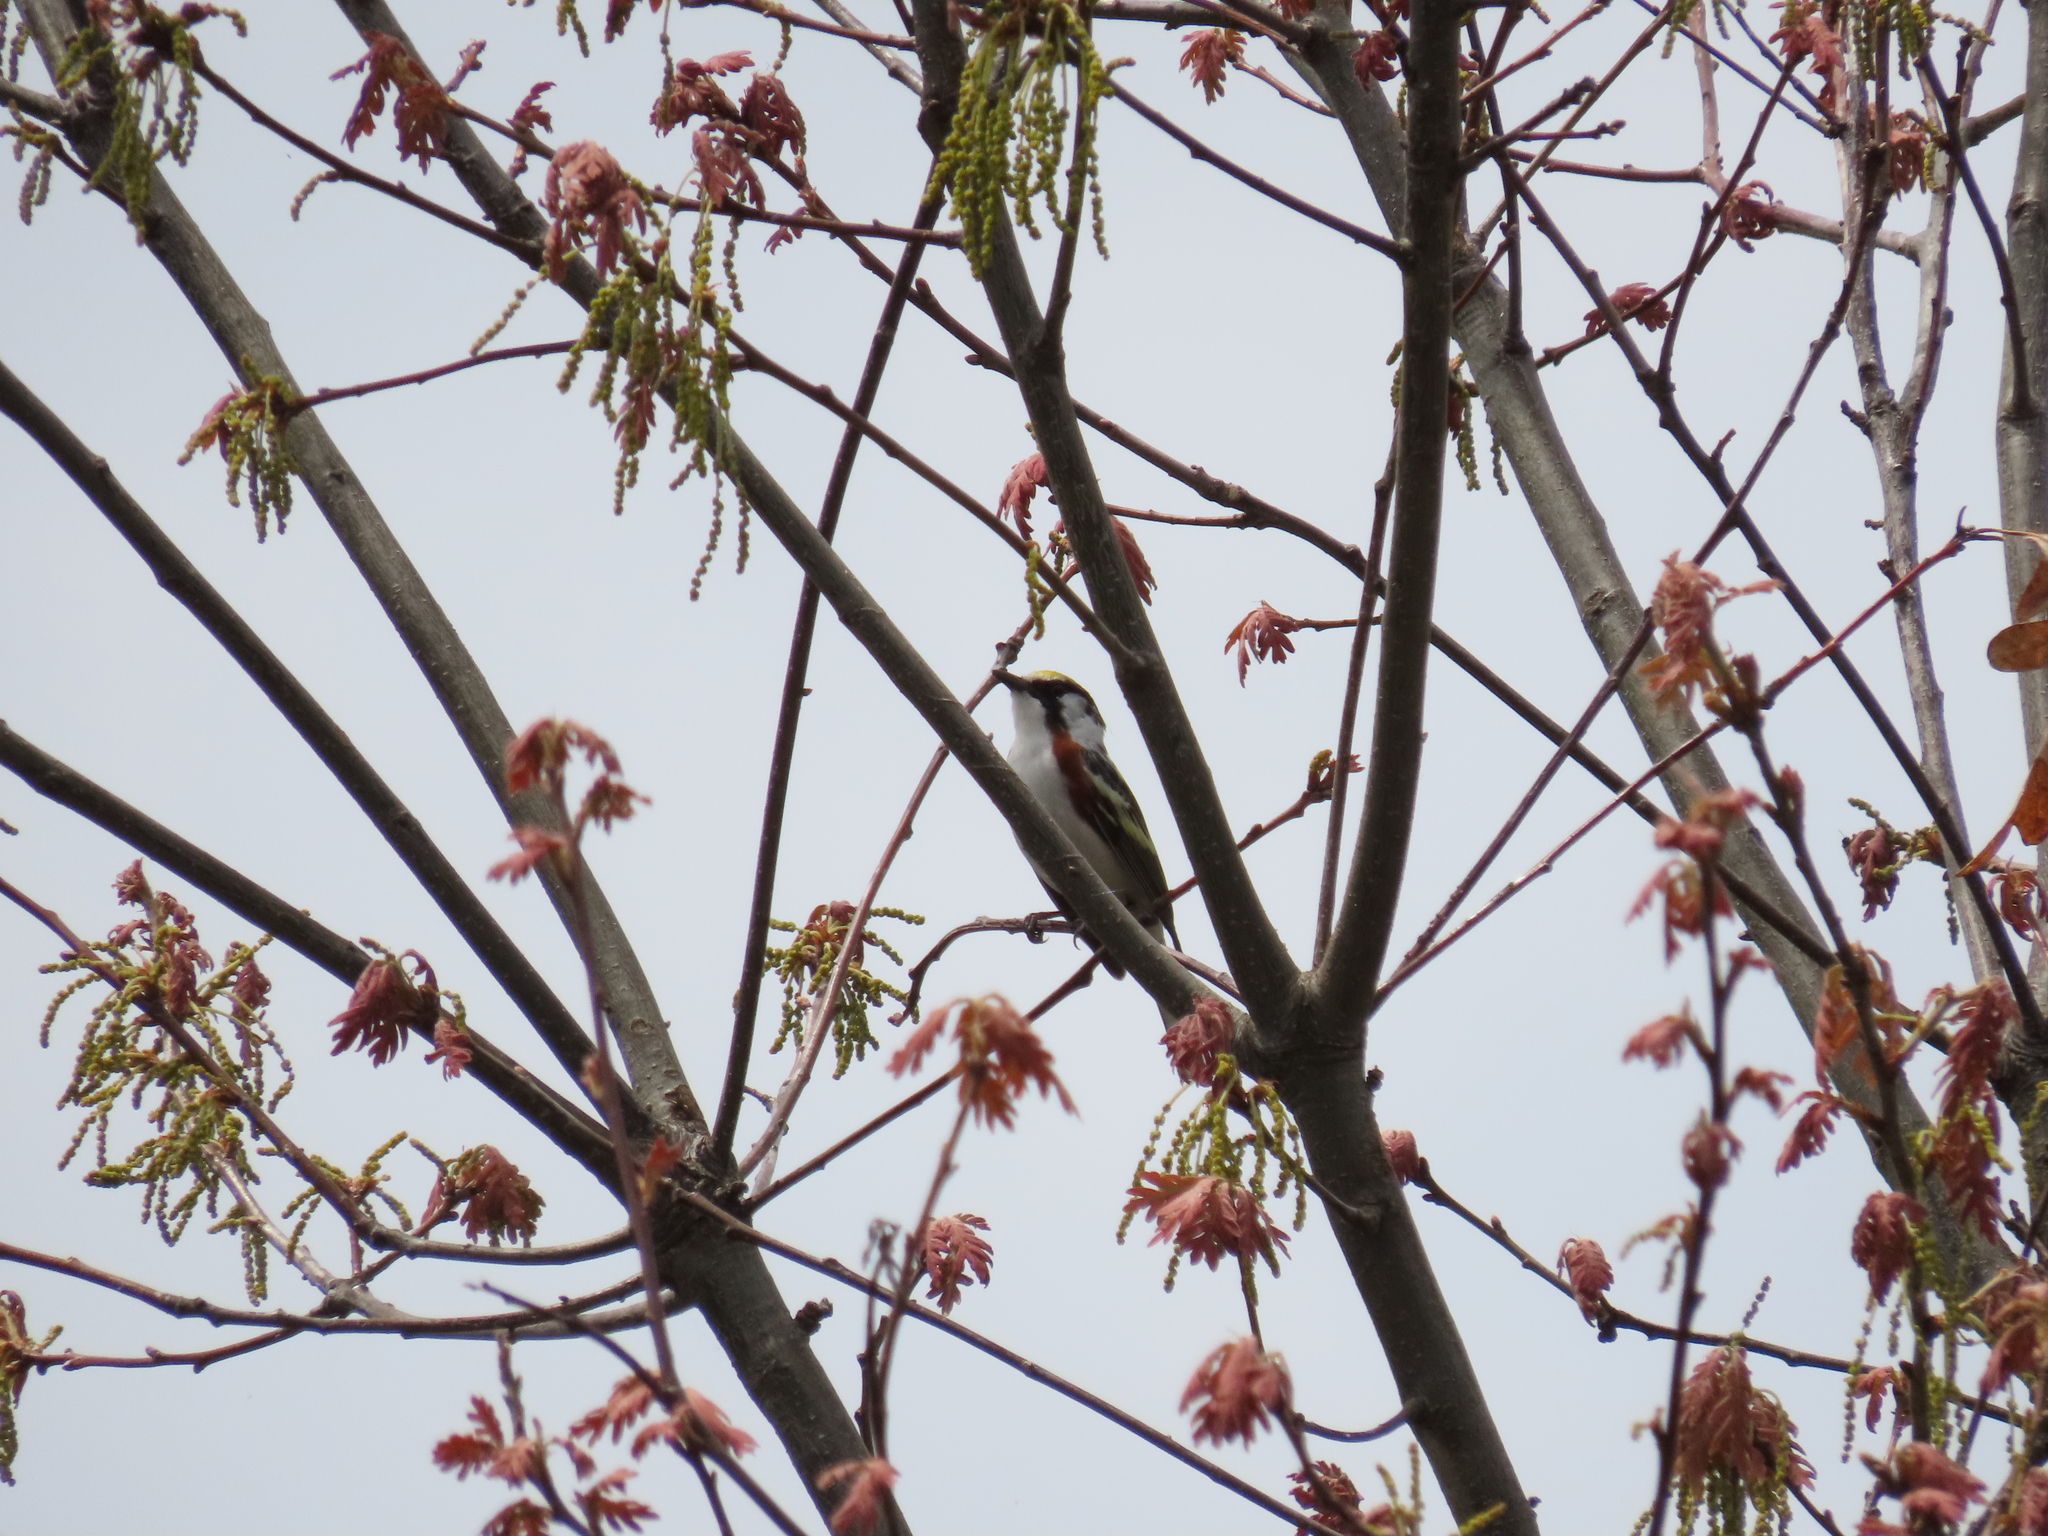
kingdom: Animalia
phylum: Chordata
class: Aves
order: Passeriformes
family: Parulidae
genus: Setophaga
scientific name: Setophaga pensylvanica
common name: Chestnut-sided warbler
